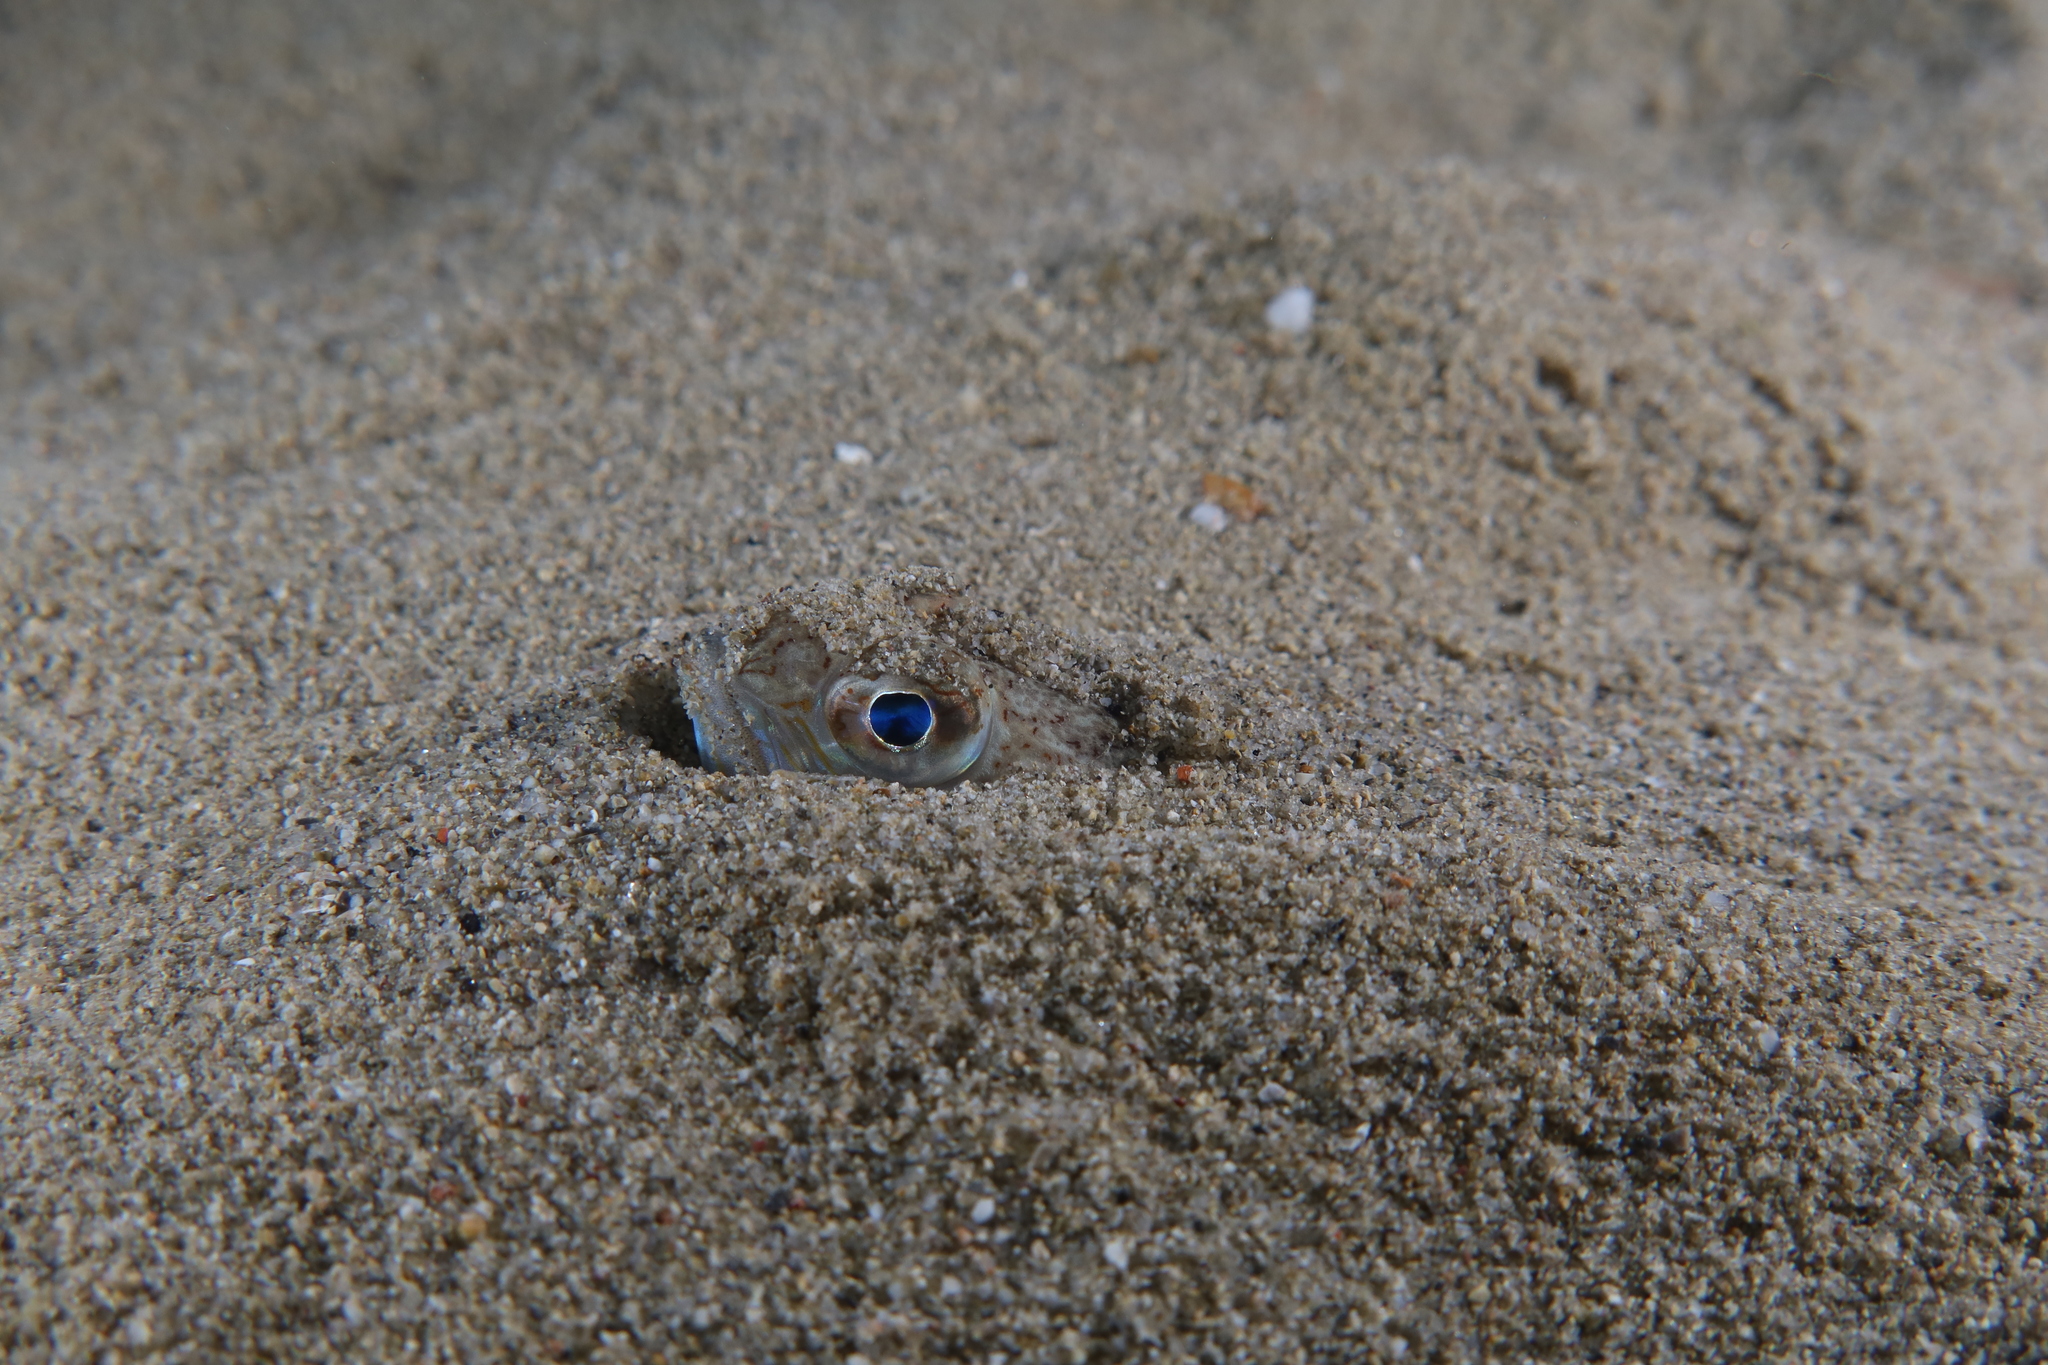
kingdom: Animalia
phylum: Chordata
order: Perciformes
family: Trachinidae
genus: Trachinus
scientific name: Trachinus draco
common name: Greater weever
